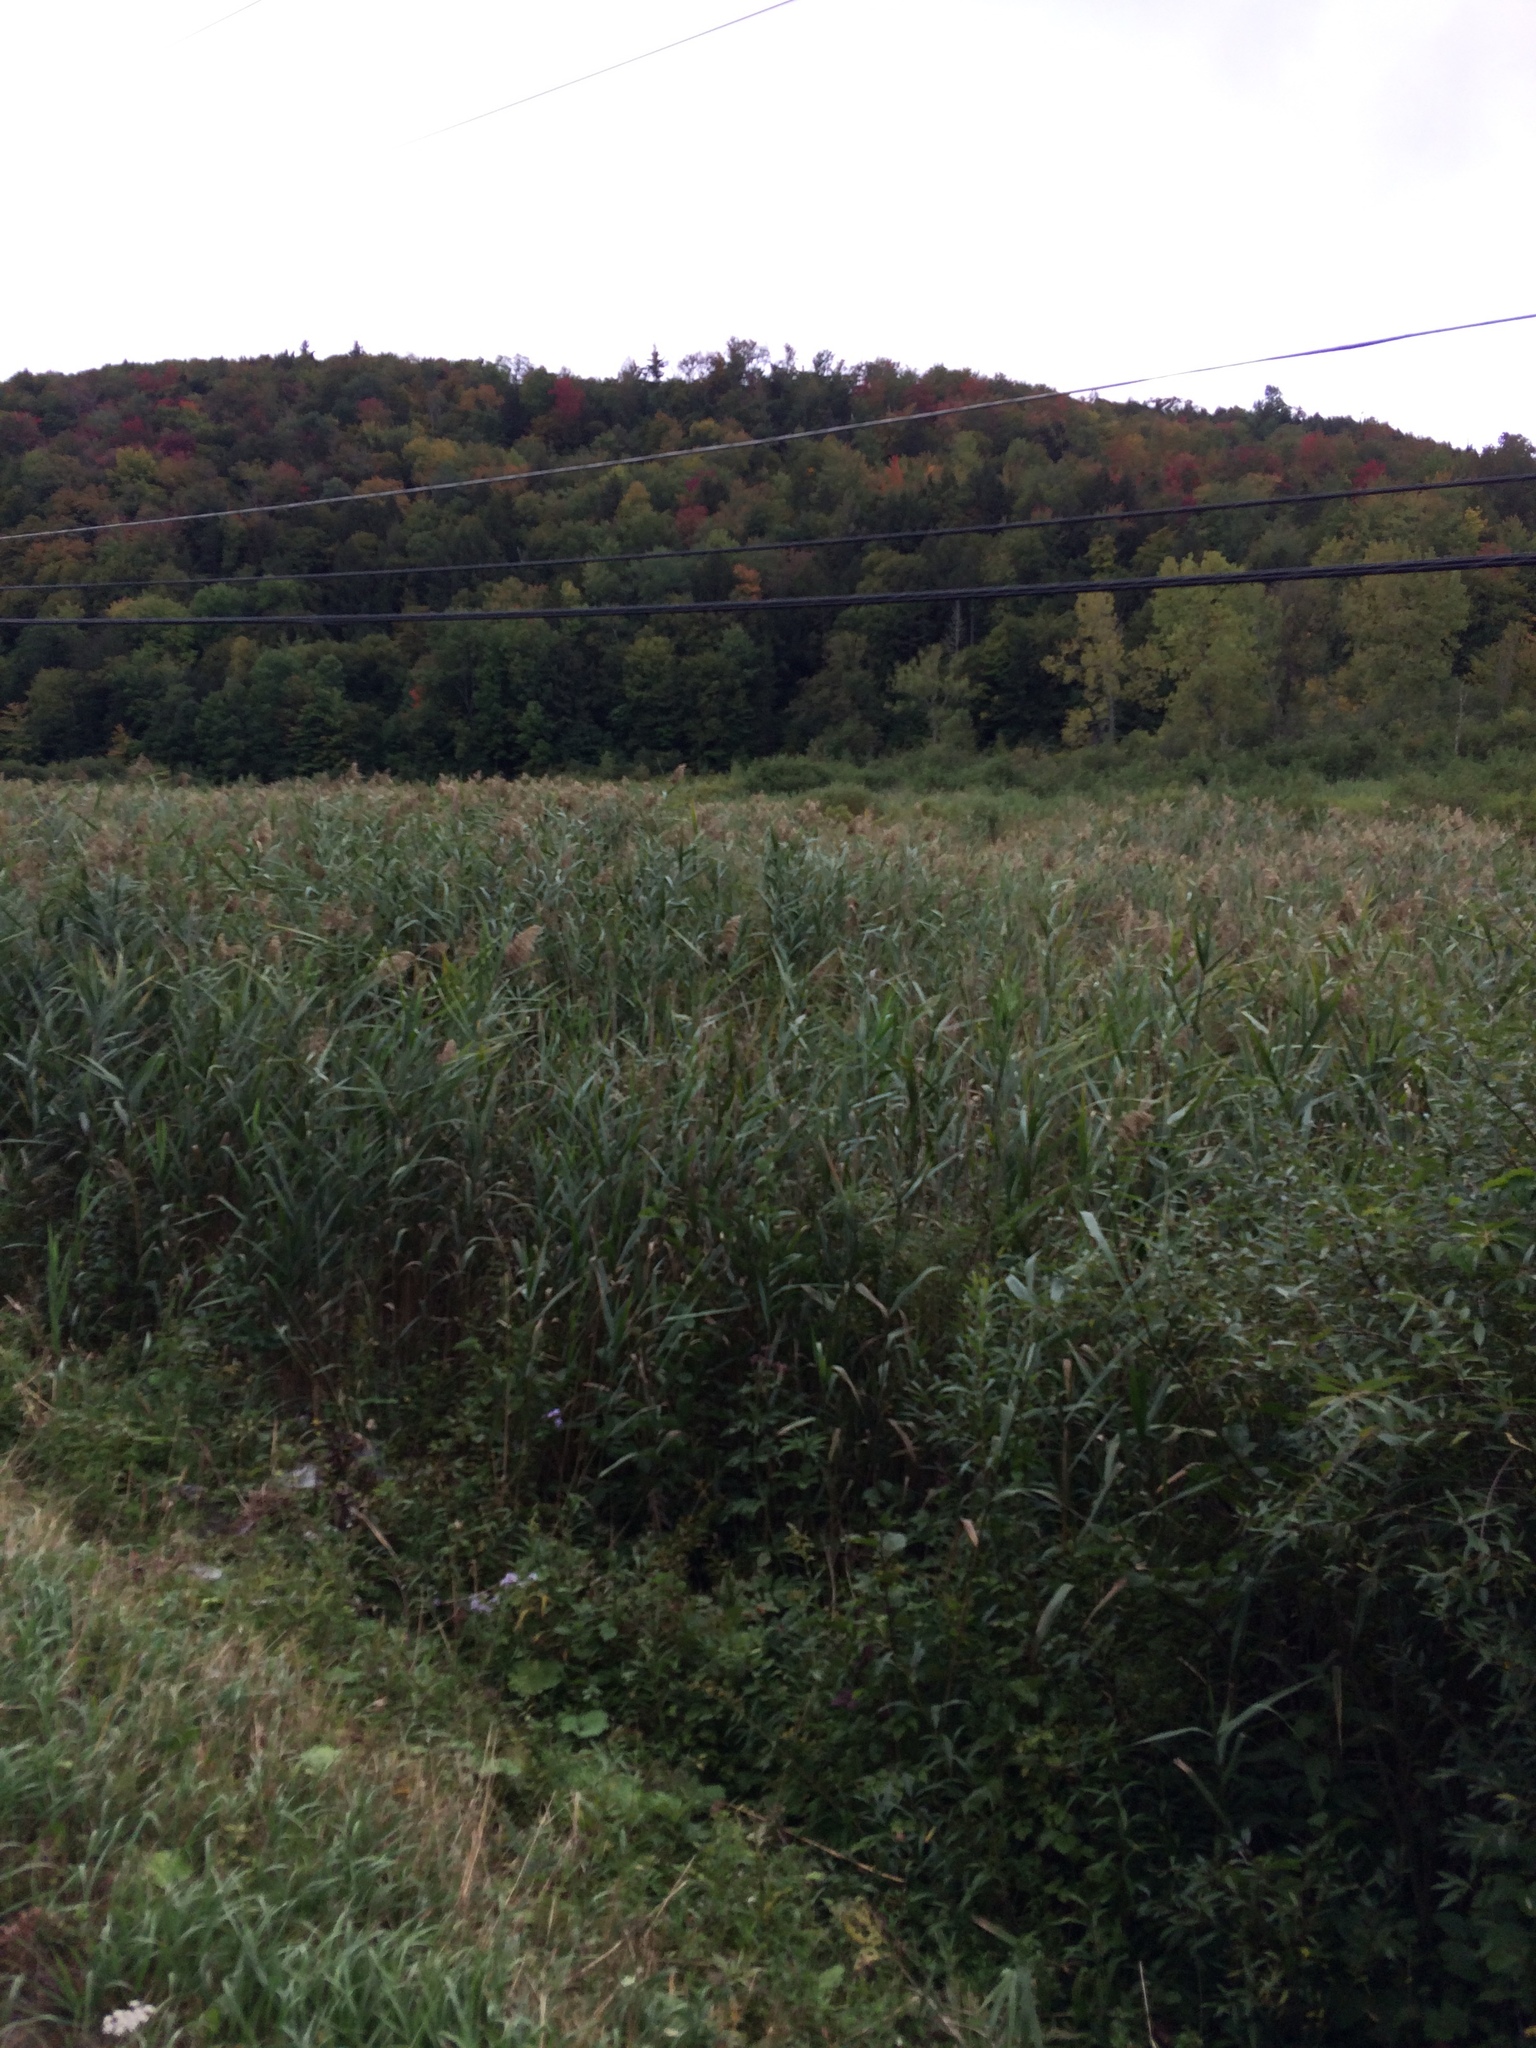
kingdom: Plantae
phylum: Tracheophyta
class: Liliopsida
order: Poales
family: Poaceae
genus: Phragmites
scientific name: Phragmites australis
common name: Common reed
